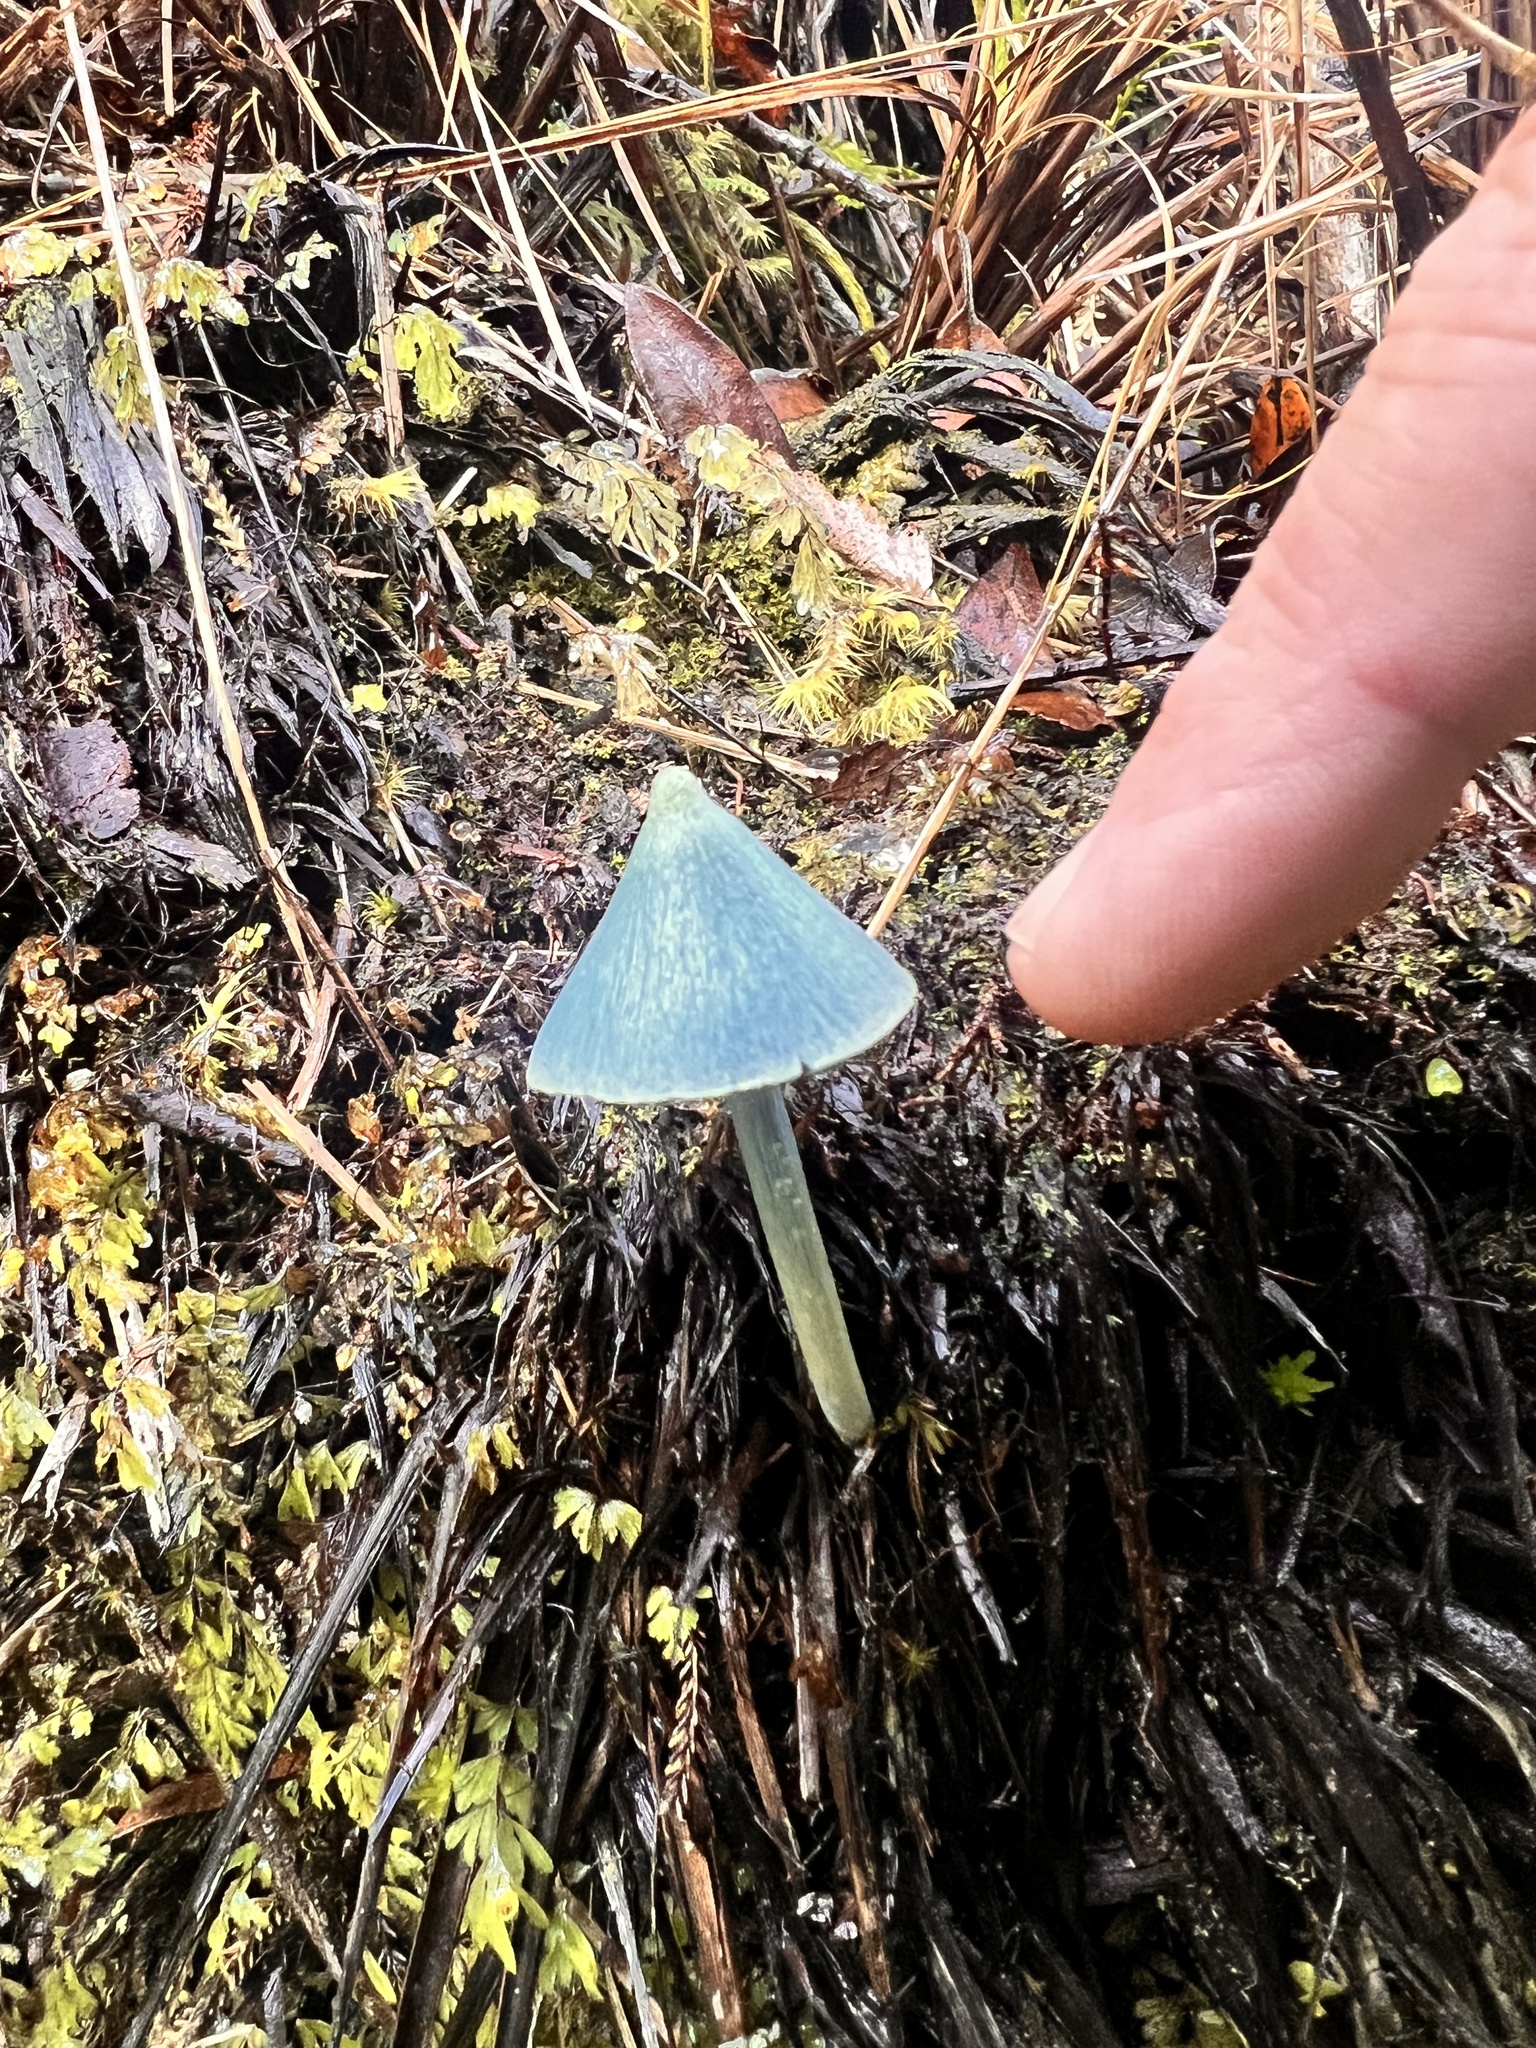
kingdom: Fungi
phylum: Basidiomycota
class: Agaricomycetes
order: Agaricales
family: Entolomataceae
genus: Entoloma
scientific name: Entoloma hochstetteri
